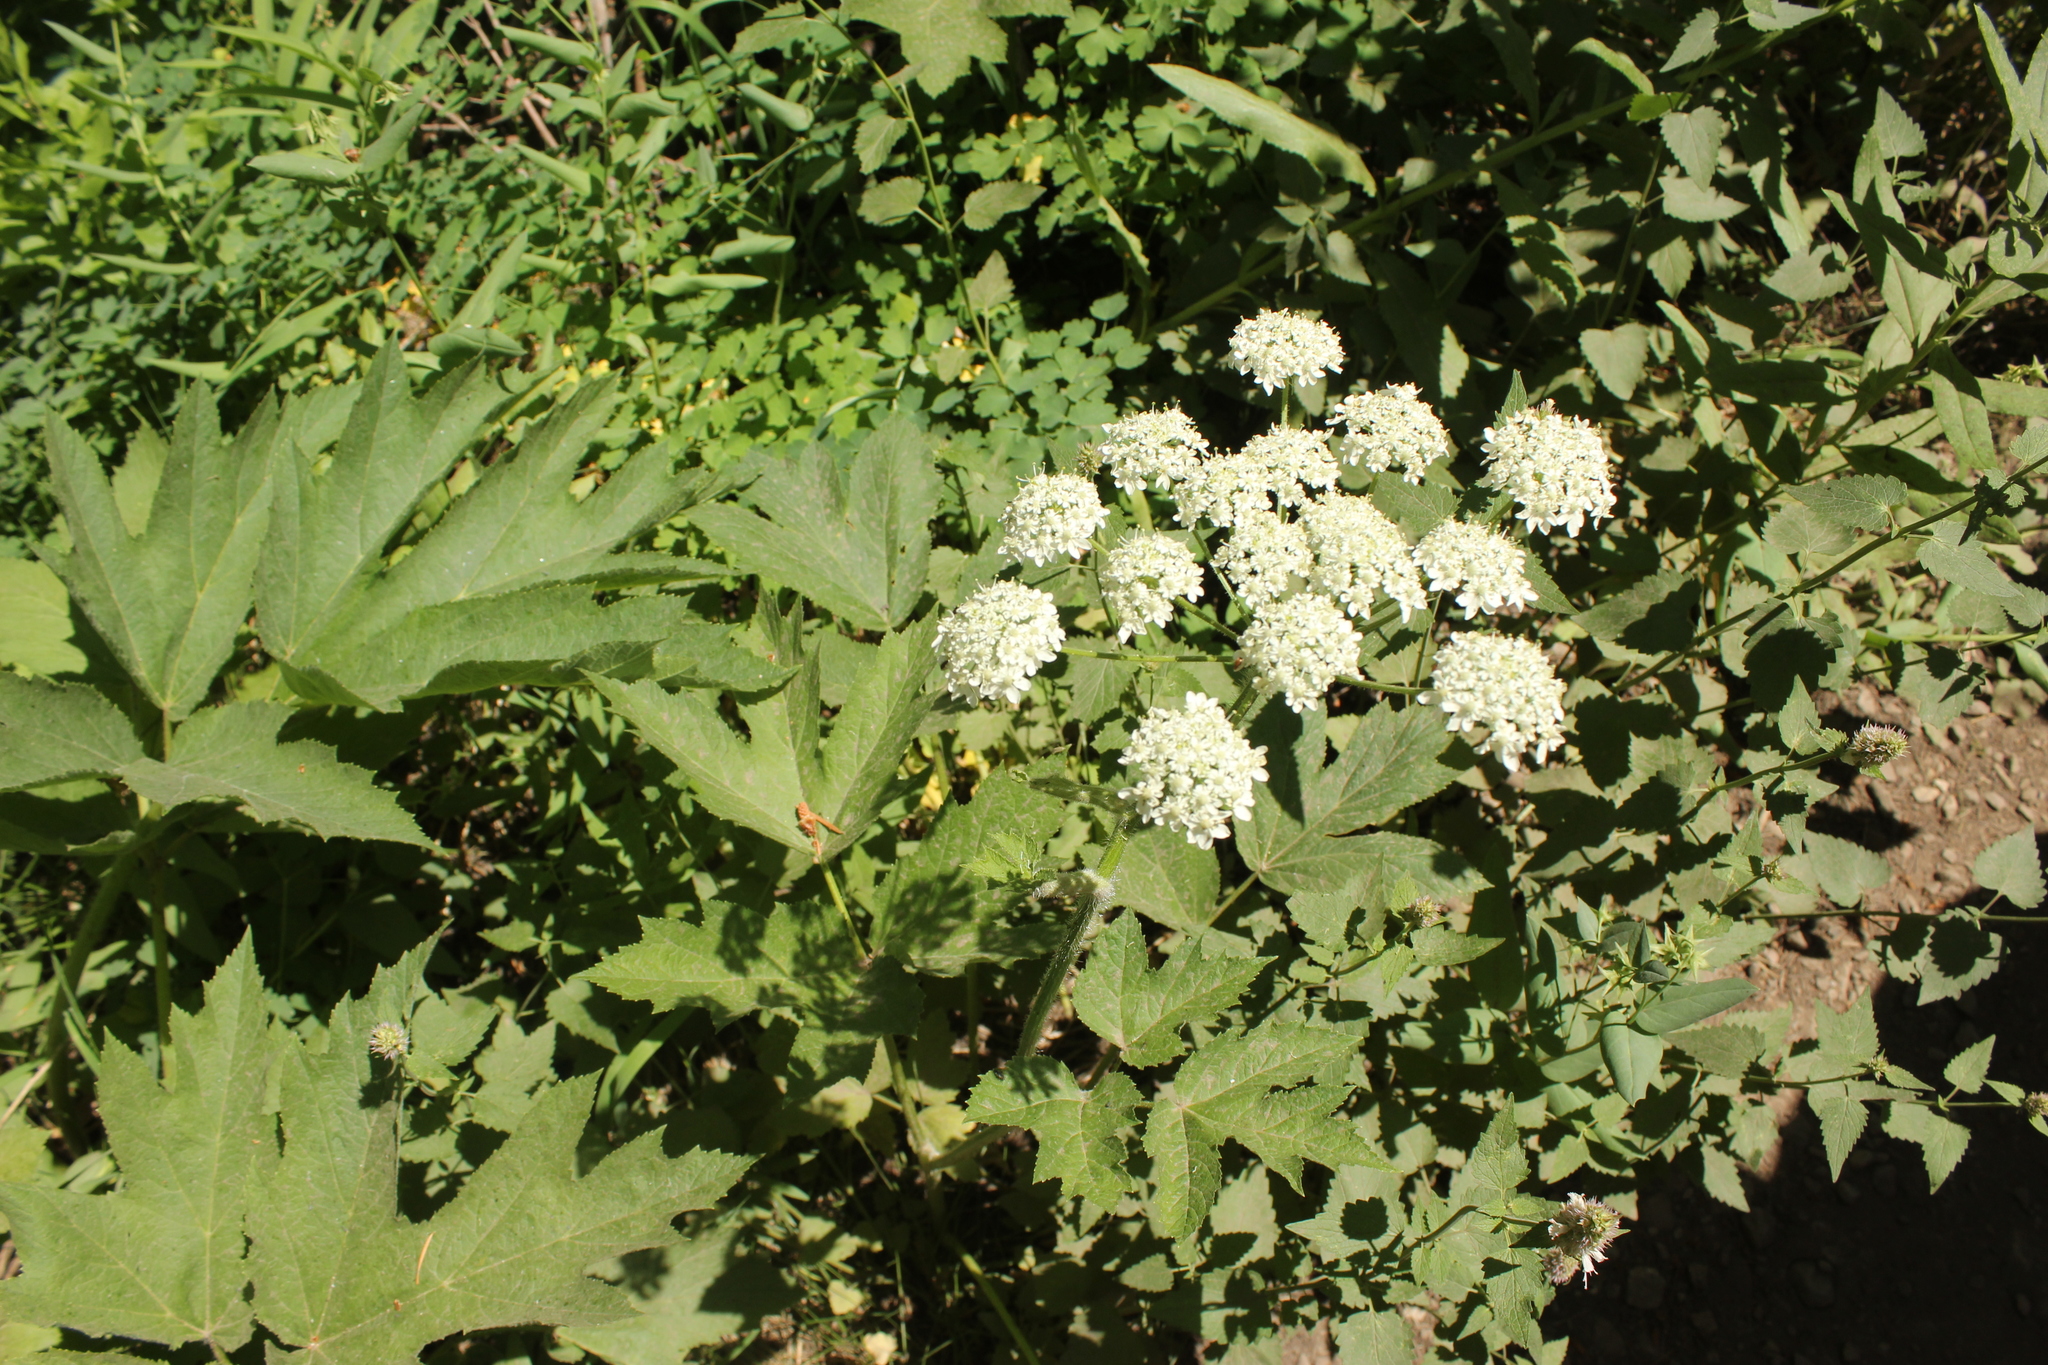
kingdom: Plantae
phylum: Tracheophyta
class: Magnoliopsida
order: Apiales
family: Apiaceae
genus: Heracleum
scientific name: Heracleum maximum
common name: American cow parsnip
